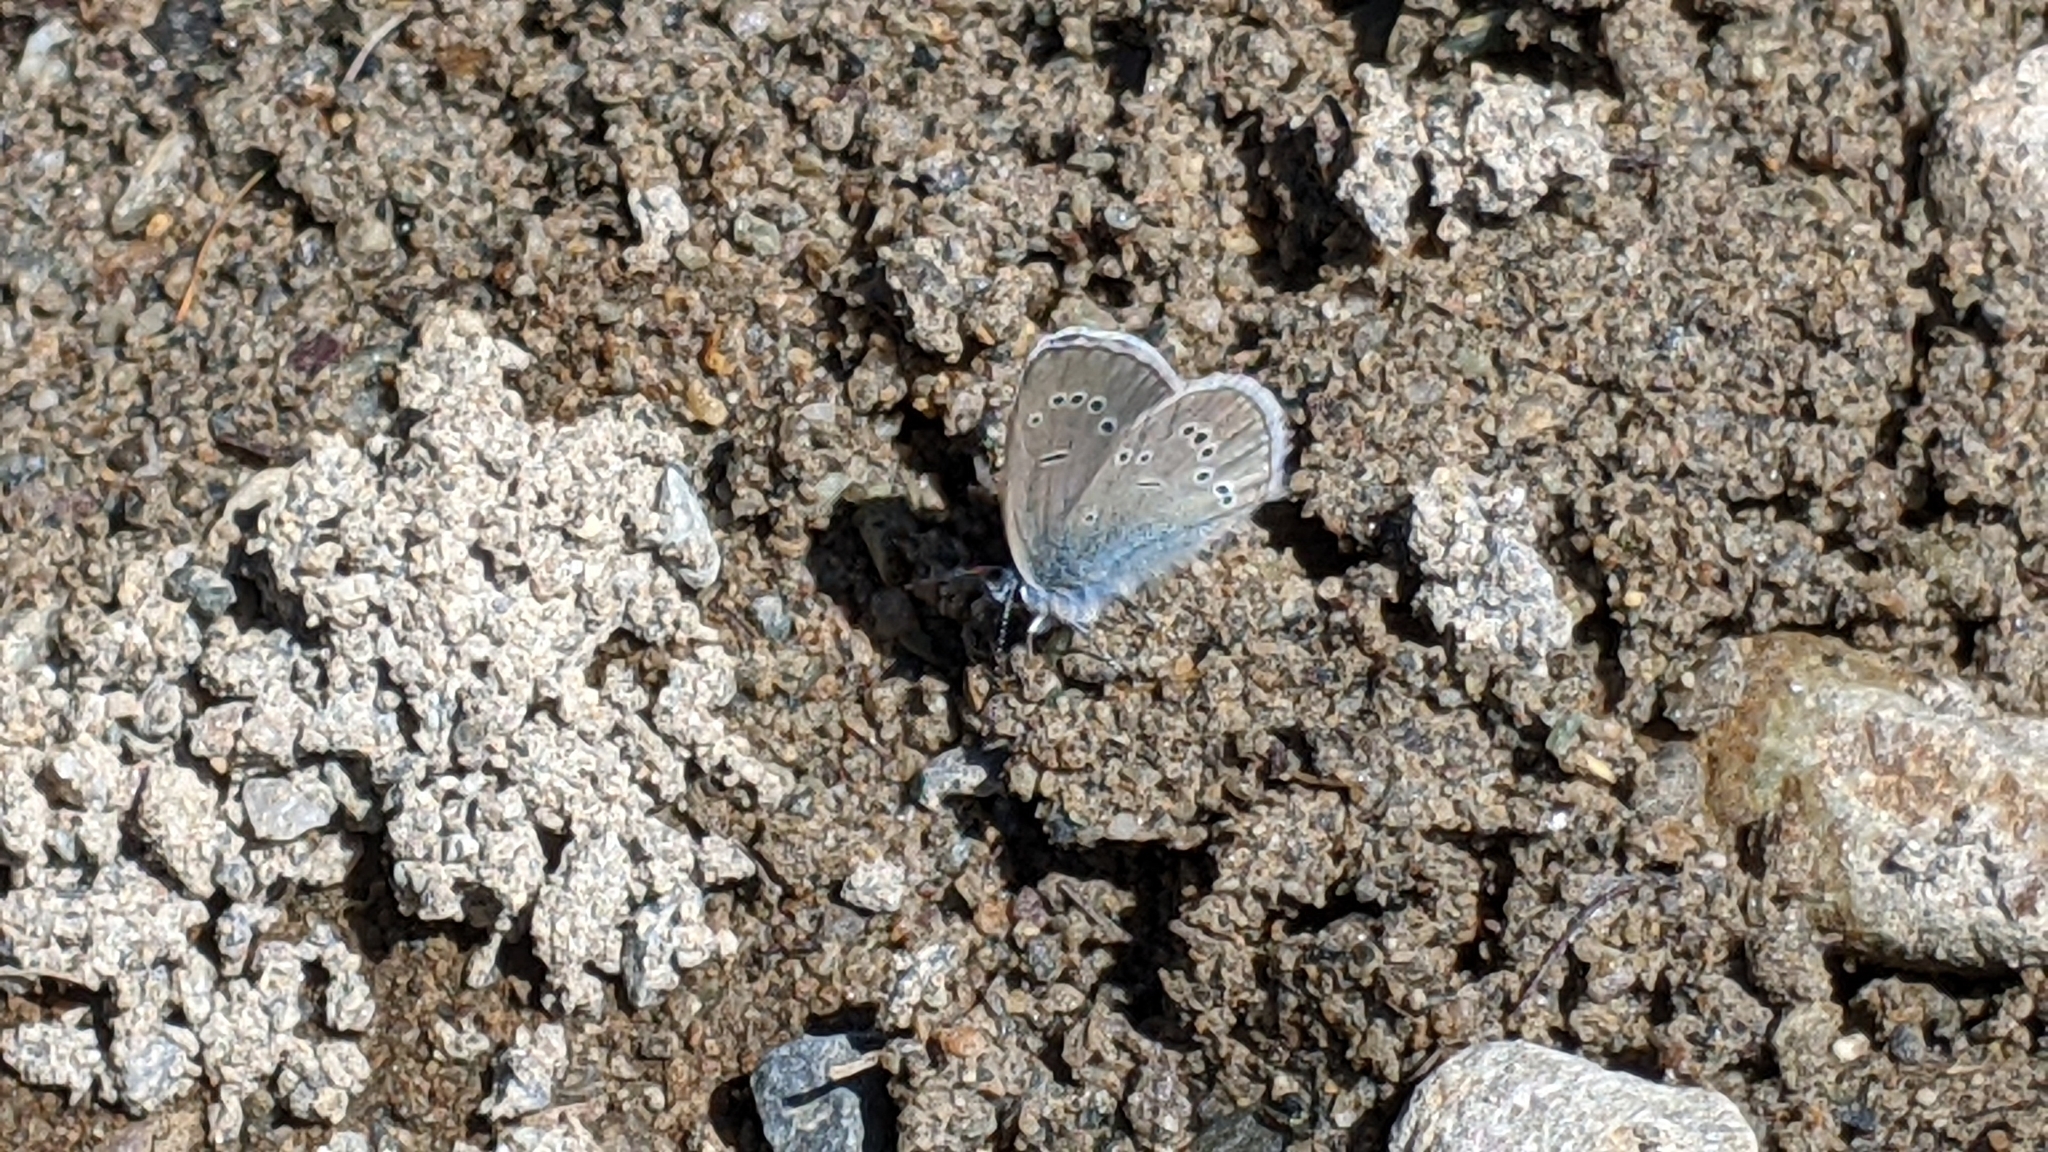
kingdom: Animalia
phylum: Arthropoda
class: Insecta
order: Lepidoptera
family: Lycaenidae
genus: Cyaniris
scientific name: Cyaniris semiargus
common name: Mazarine blue
